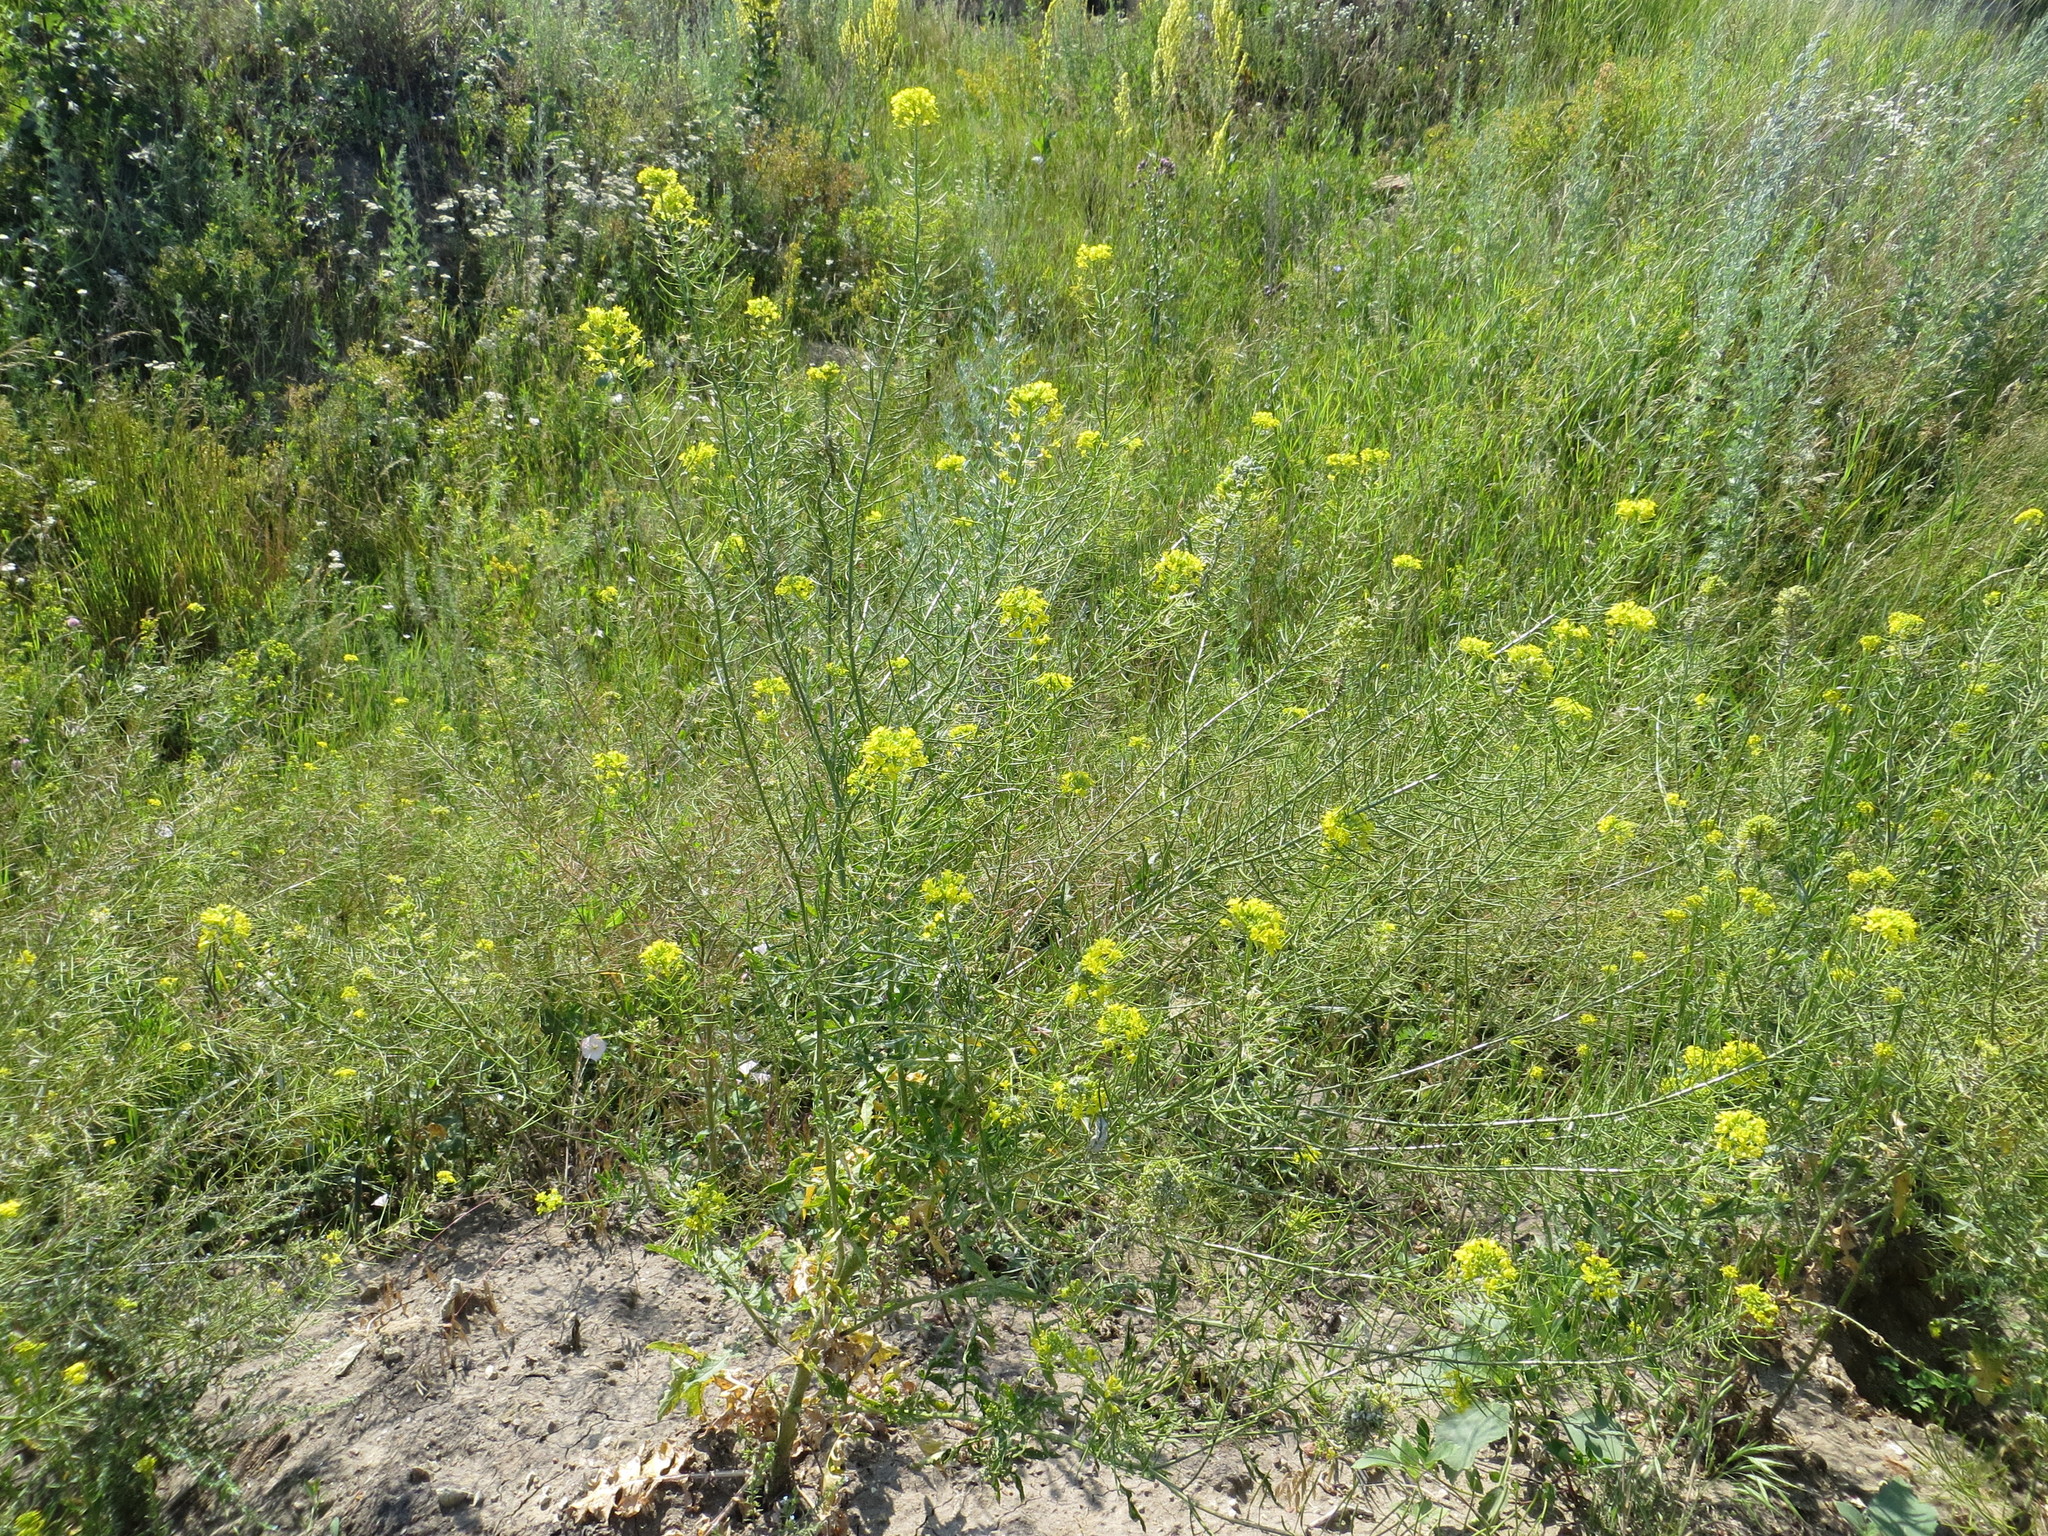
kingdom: Plantae
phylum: Tracheophyta
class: Magnoliopsida
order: Brassicales
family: Brassicaceae
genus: Sisymbrium
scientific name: Sisymbrium loeselii
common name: False london-rocket
